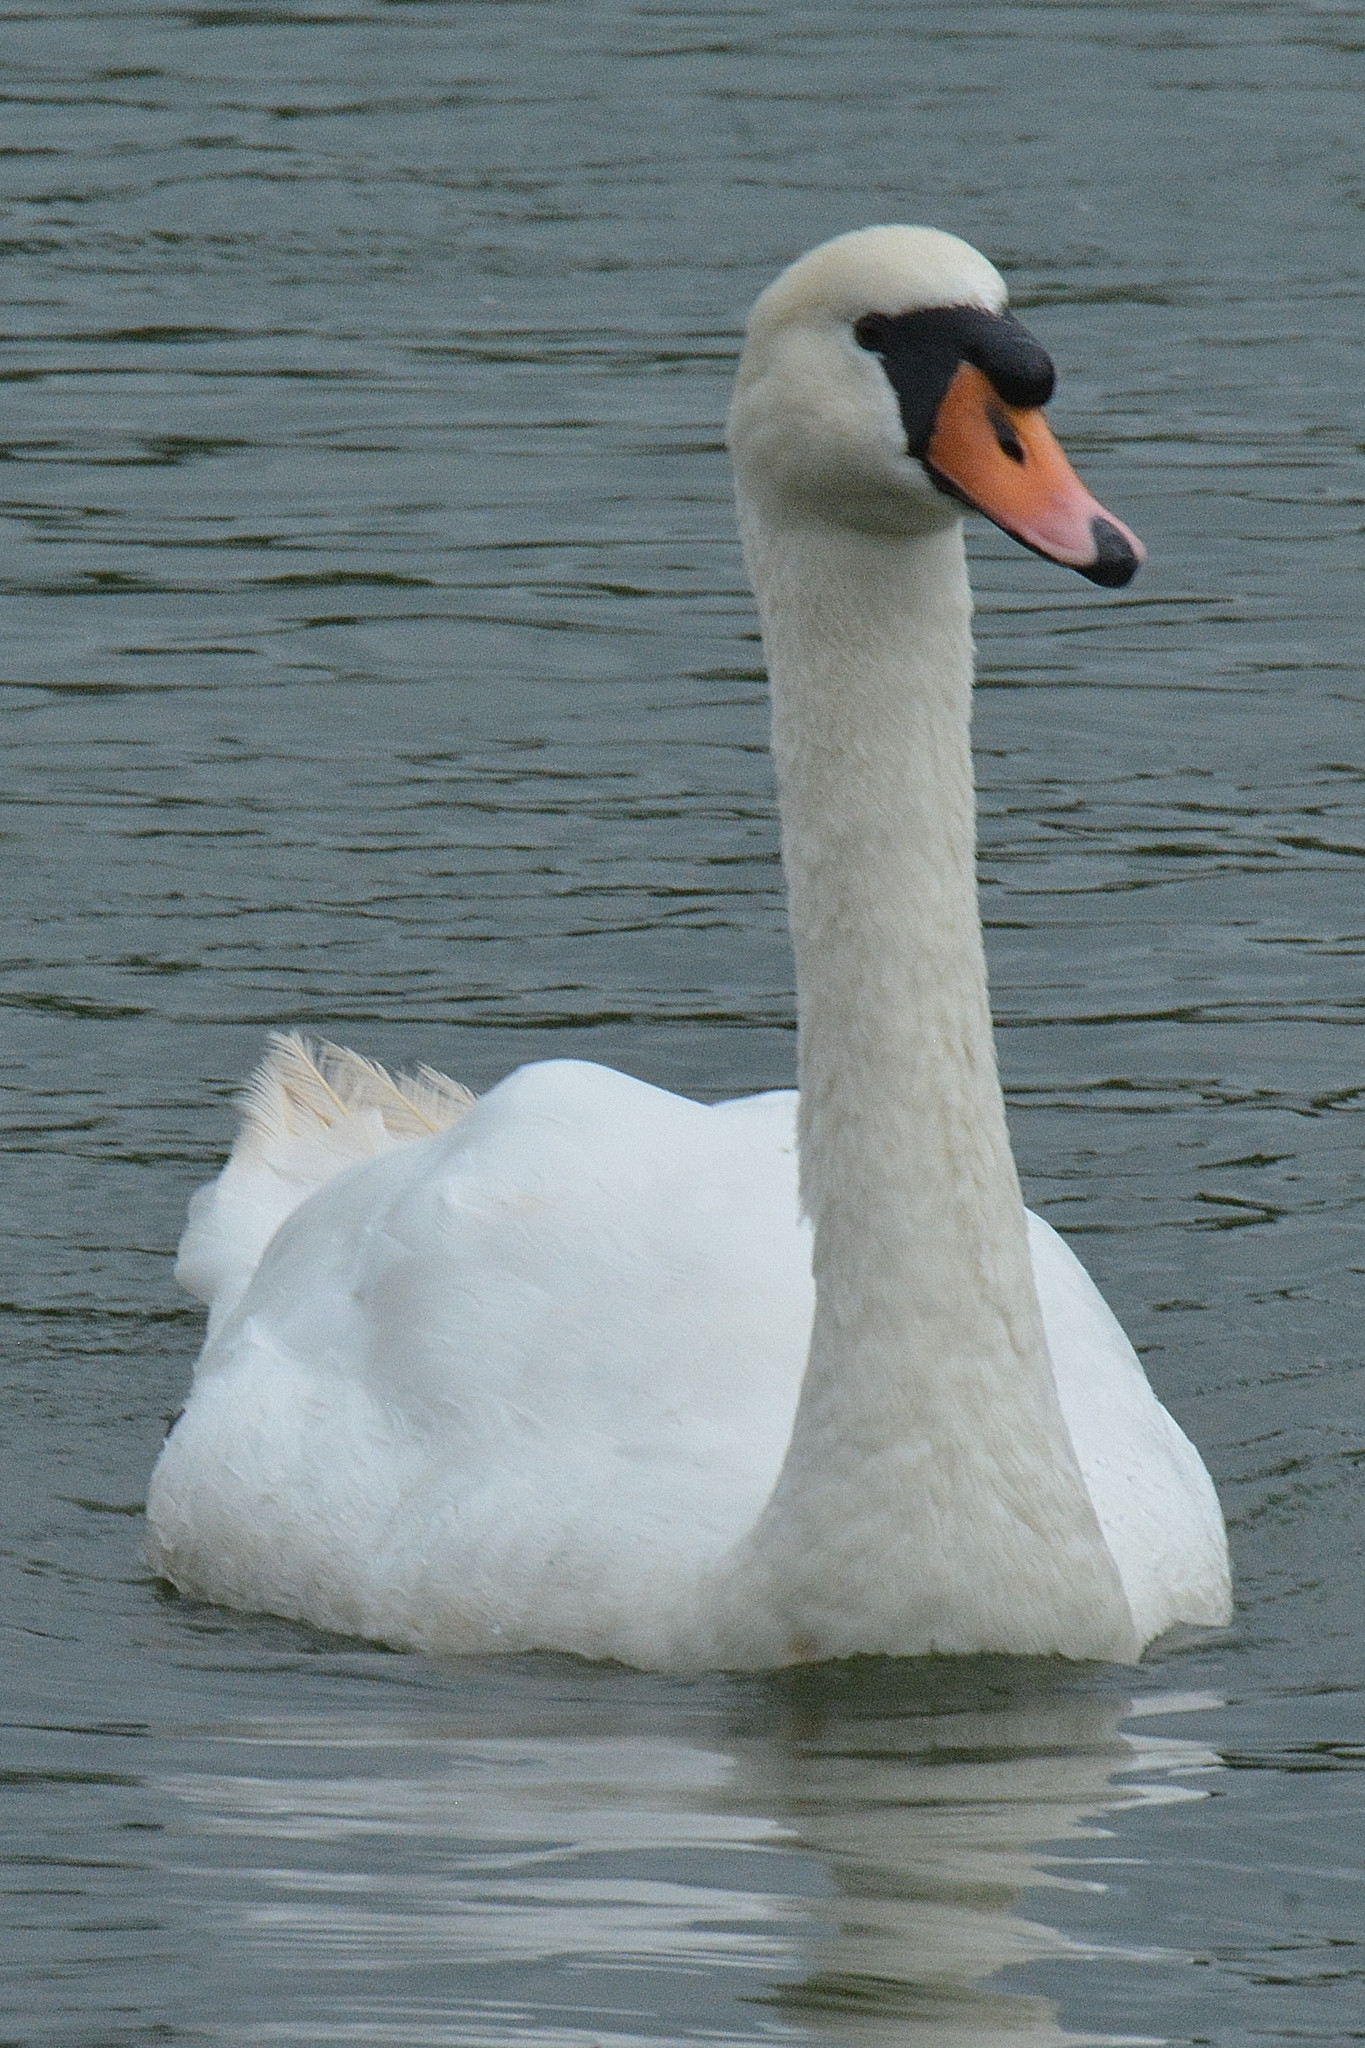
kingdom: Animalia
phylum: Chordata
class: Aves
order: Anseriformes
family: Anatidae
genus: Cygnus
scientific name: Cygnus olor
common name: Mute swan
